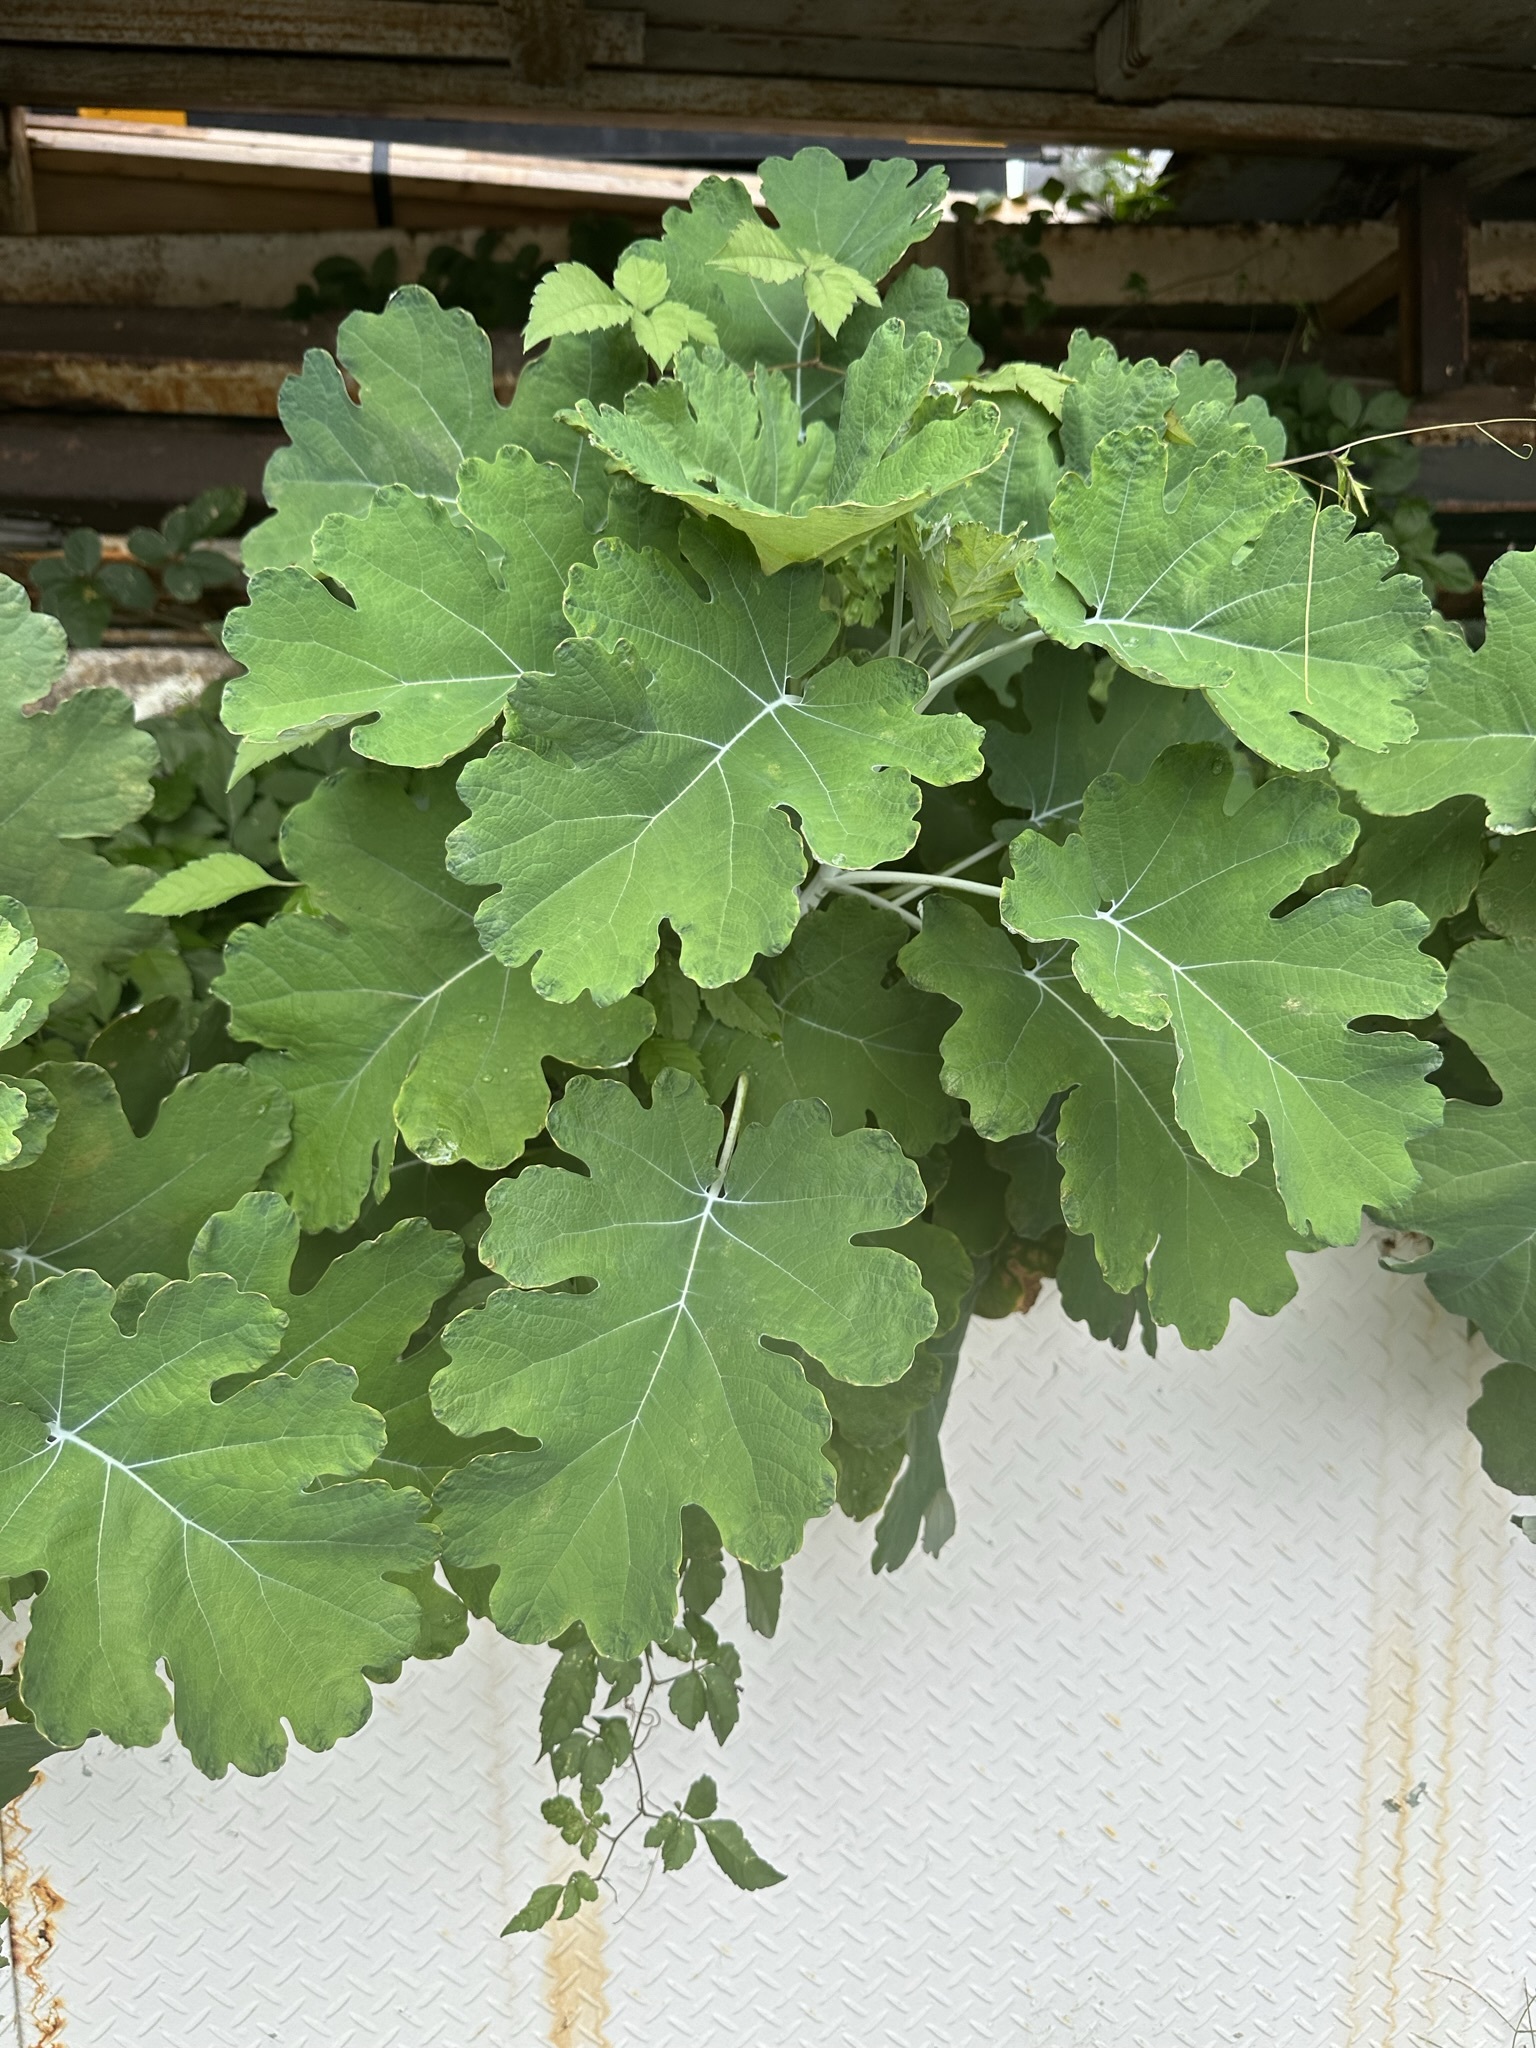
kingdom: Plantae
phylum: Tracheophyta
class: Magnoliopsida
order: Ranunculales
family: Papaveraceae
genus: Macleaya
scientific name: Macleaya cordata
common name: Plume poppy
